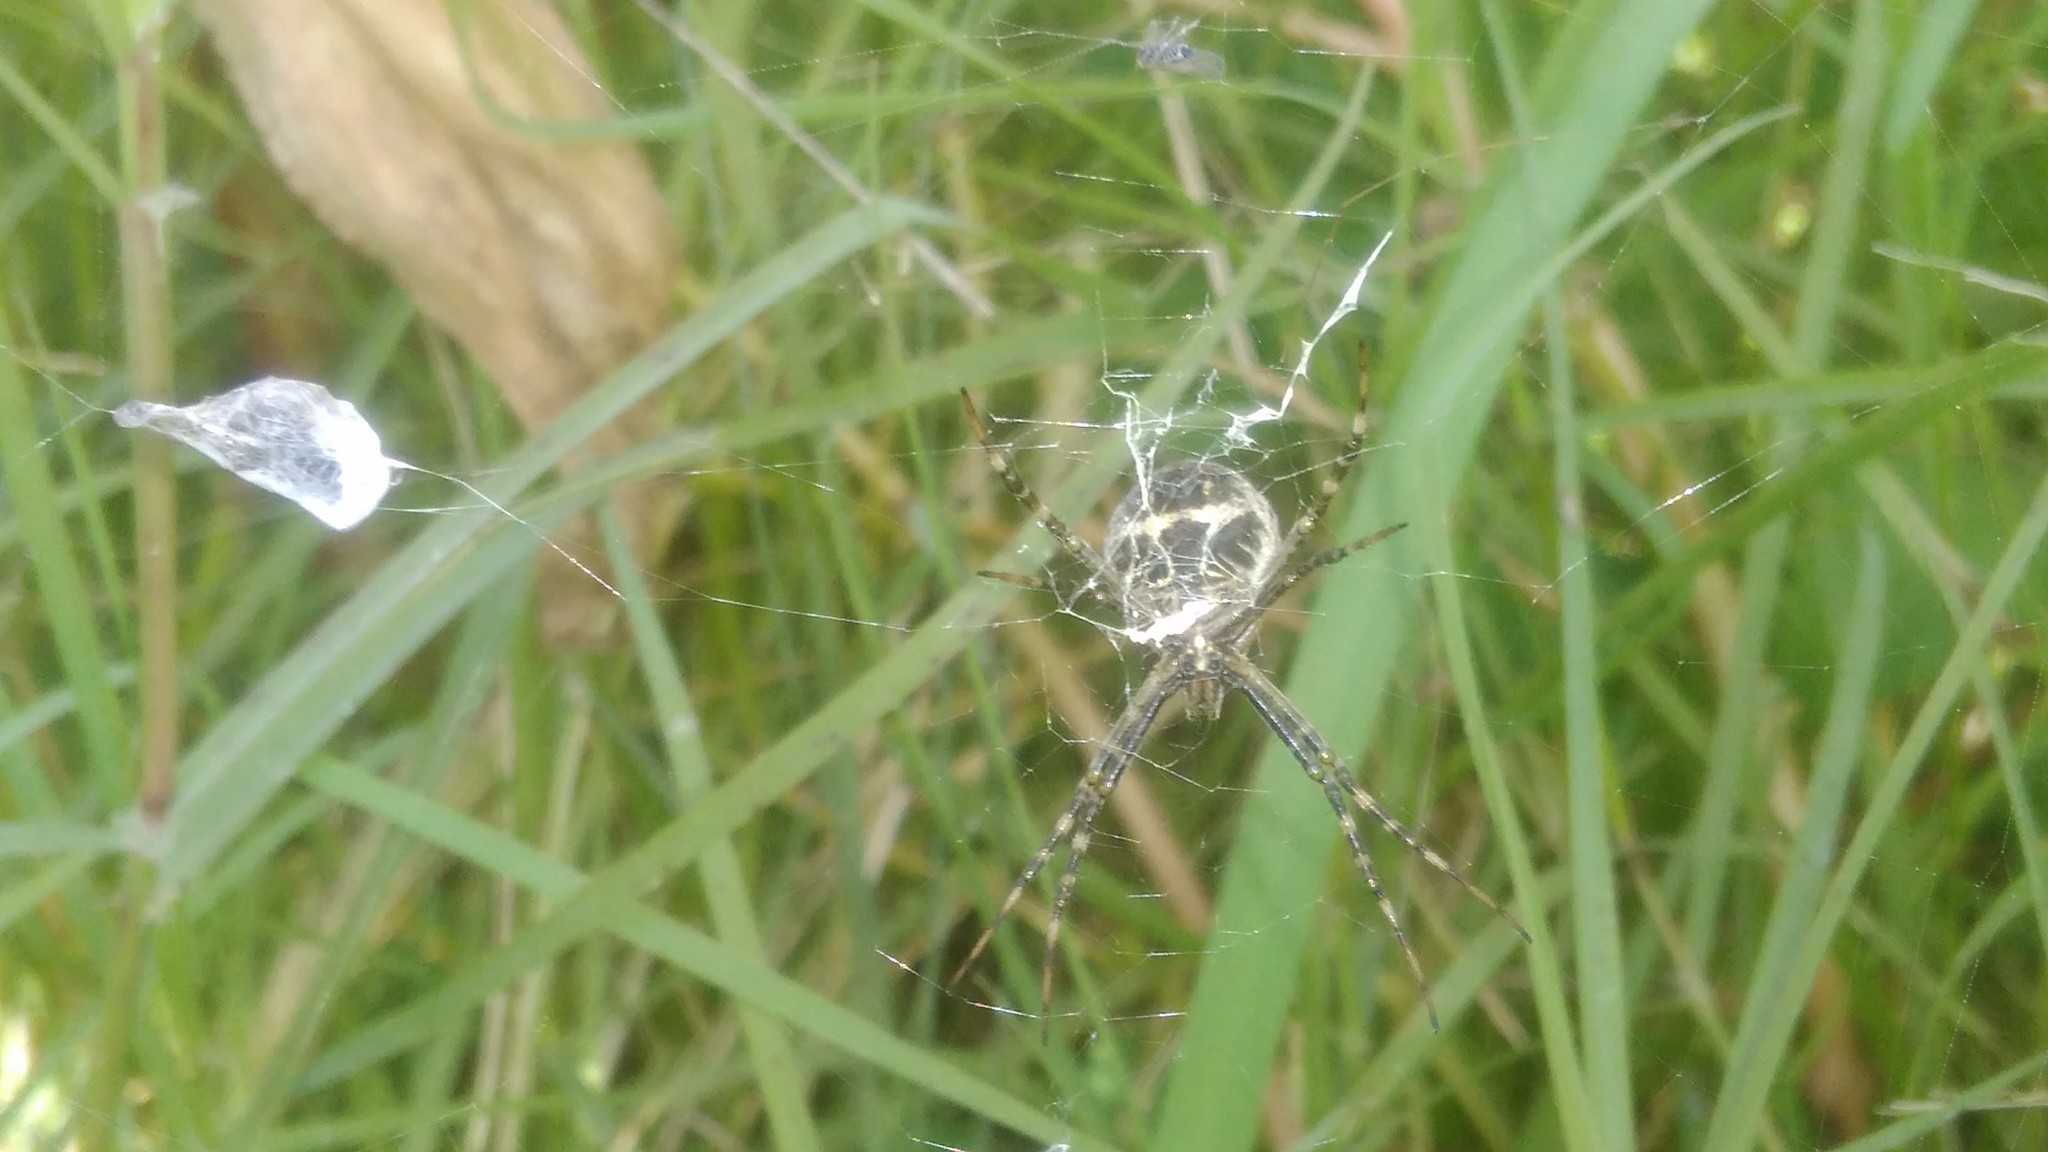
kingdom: Animalia
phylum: Arthropoda
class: Arachnida
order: Araneae
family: Araneidae
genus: Argiope
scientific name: Argiope argentata
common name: Orb weavers
